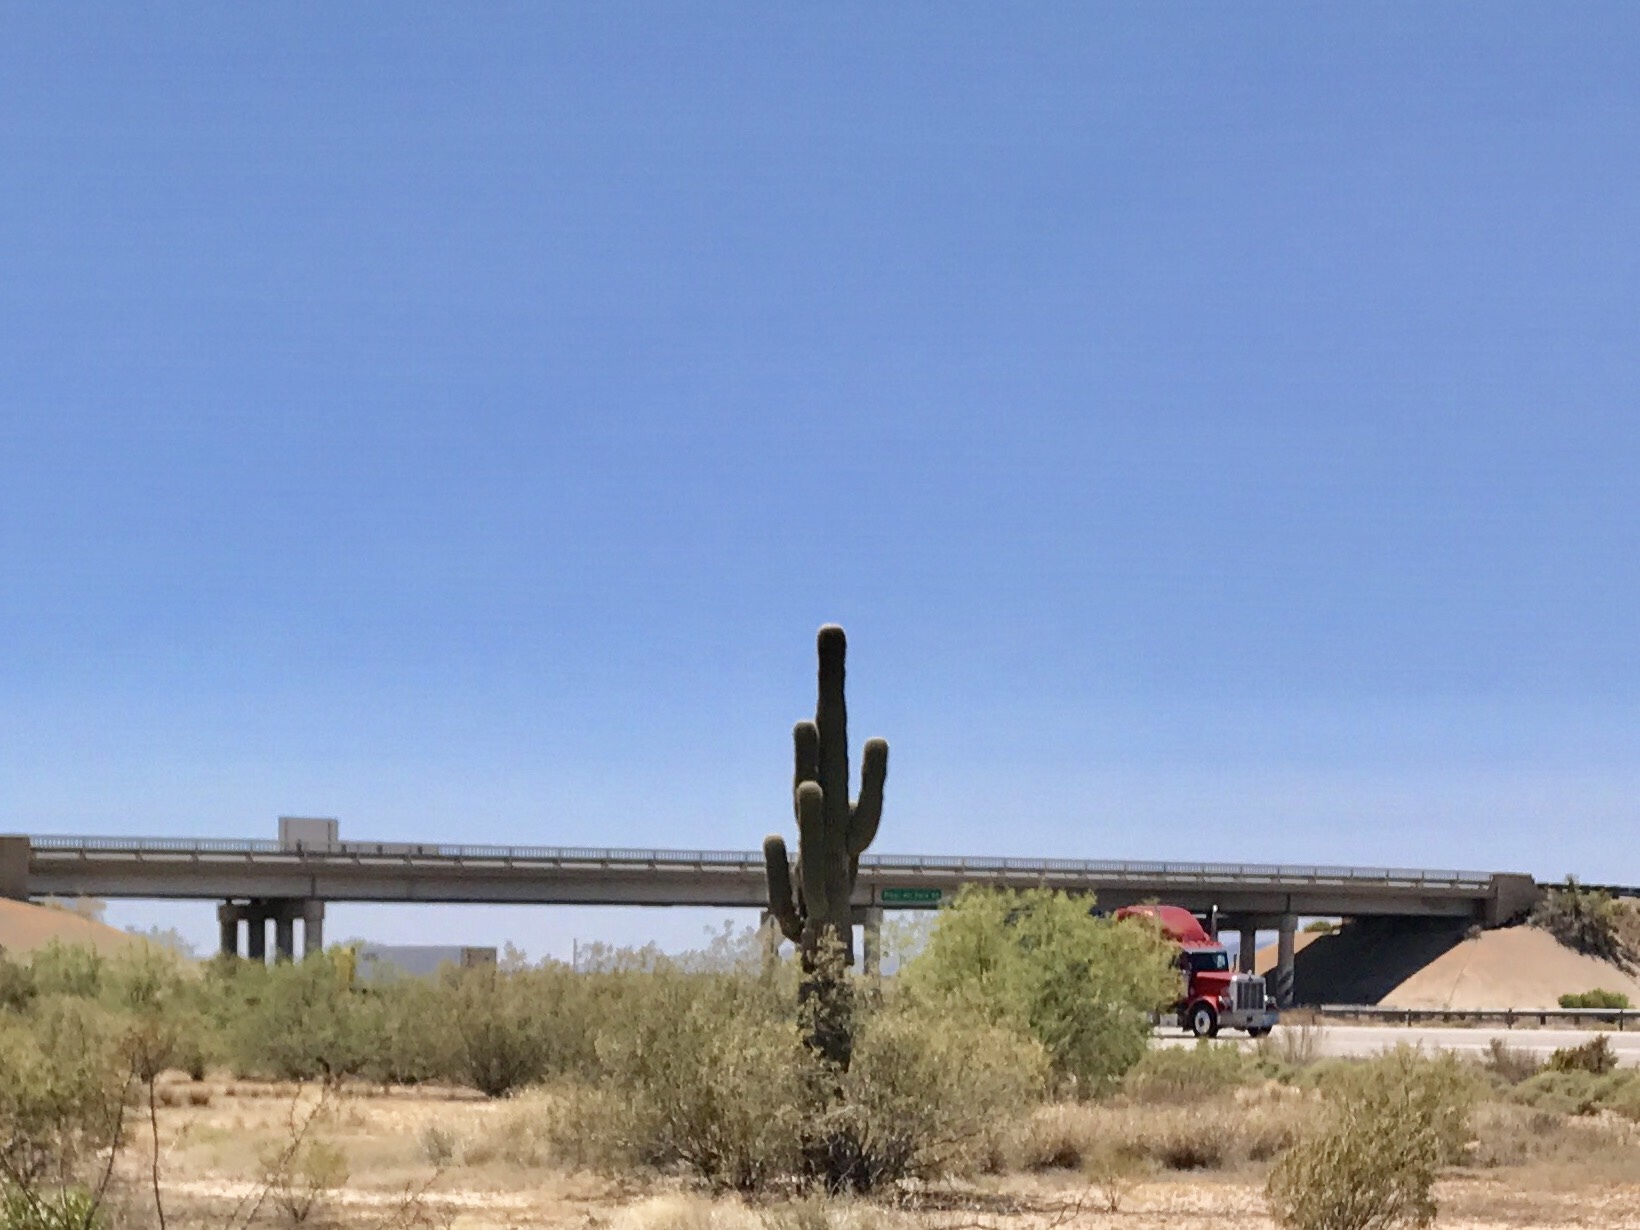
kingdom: Plantae
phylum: Tracheophyta
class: Magnoliopsida
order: Caryophyllales
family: Cactaceae
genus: Carnegiea
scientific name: Carnegiea gigantea
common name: Saguaro
